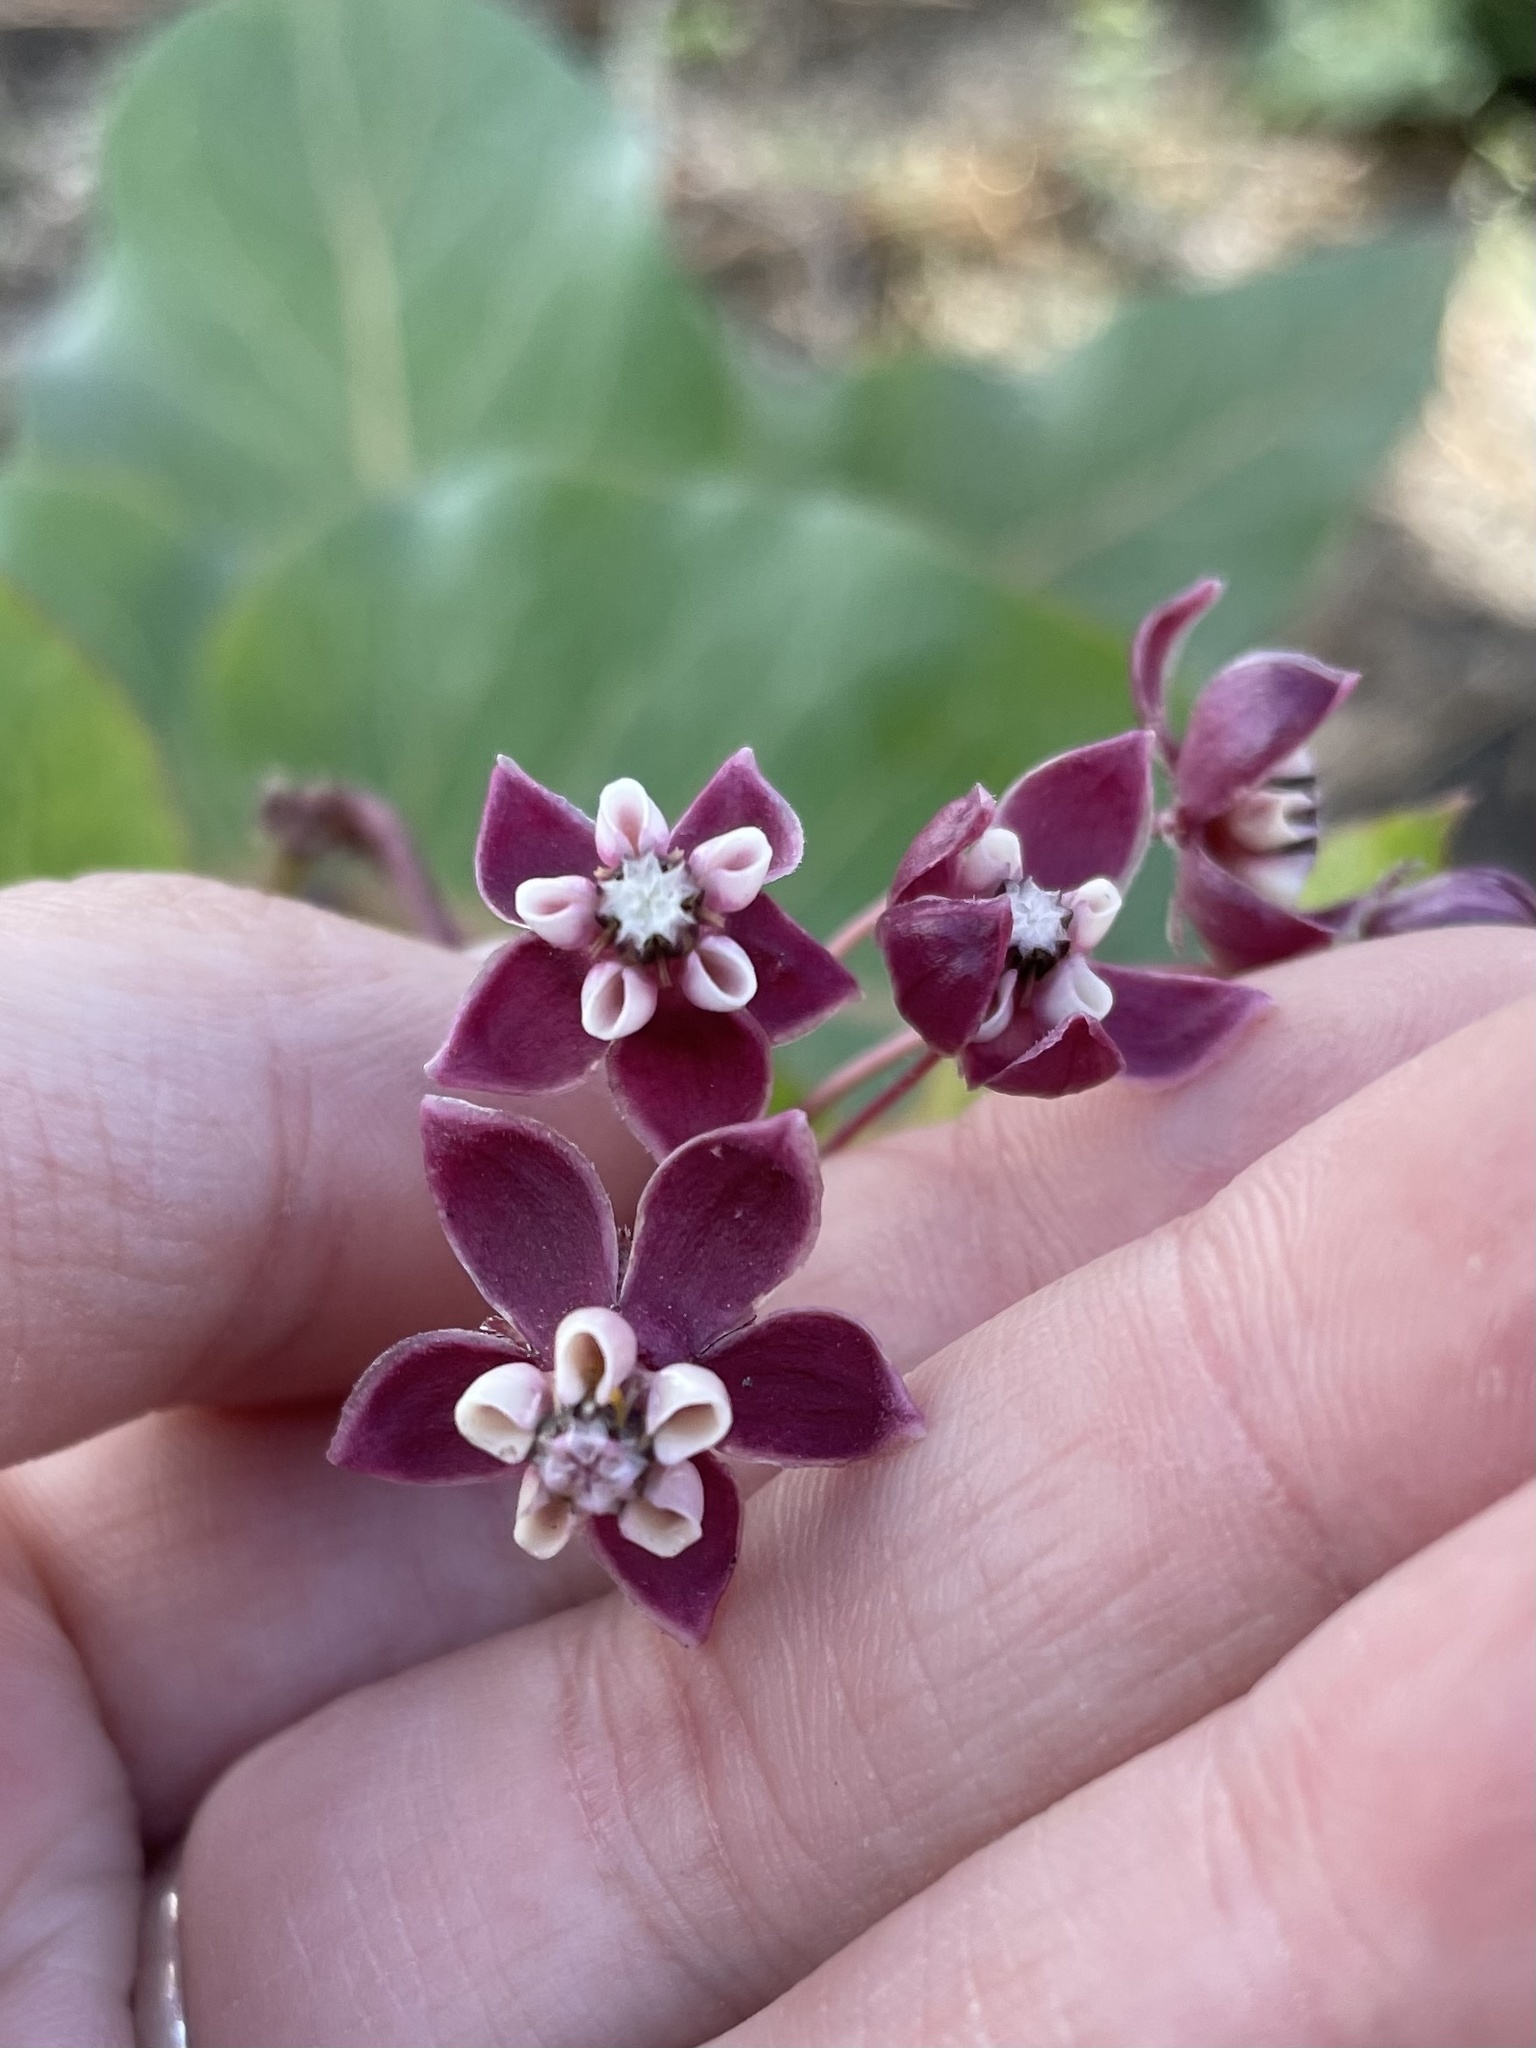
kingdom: Plantae
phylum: Tracheophyta
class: Magnoliopsida
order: Gentianales
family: Apocynaceae
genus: Asclepias
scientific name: Asclepias cordifolia
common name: Purple milkweed
